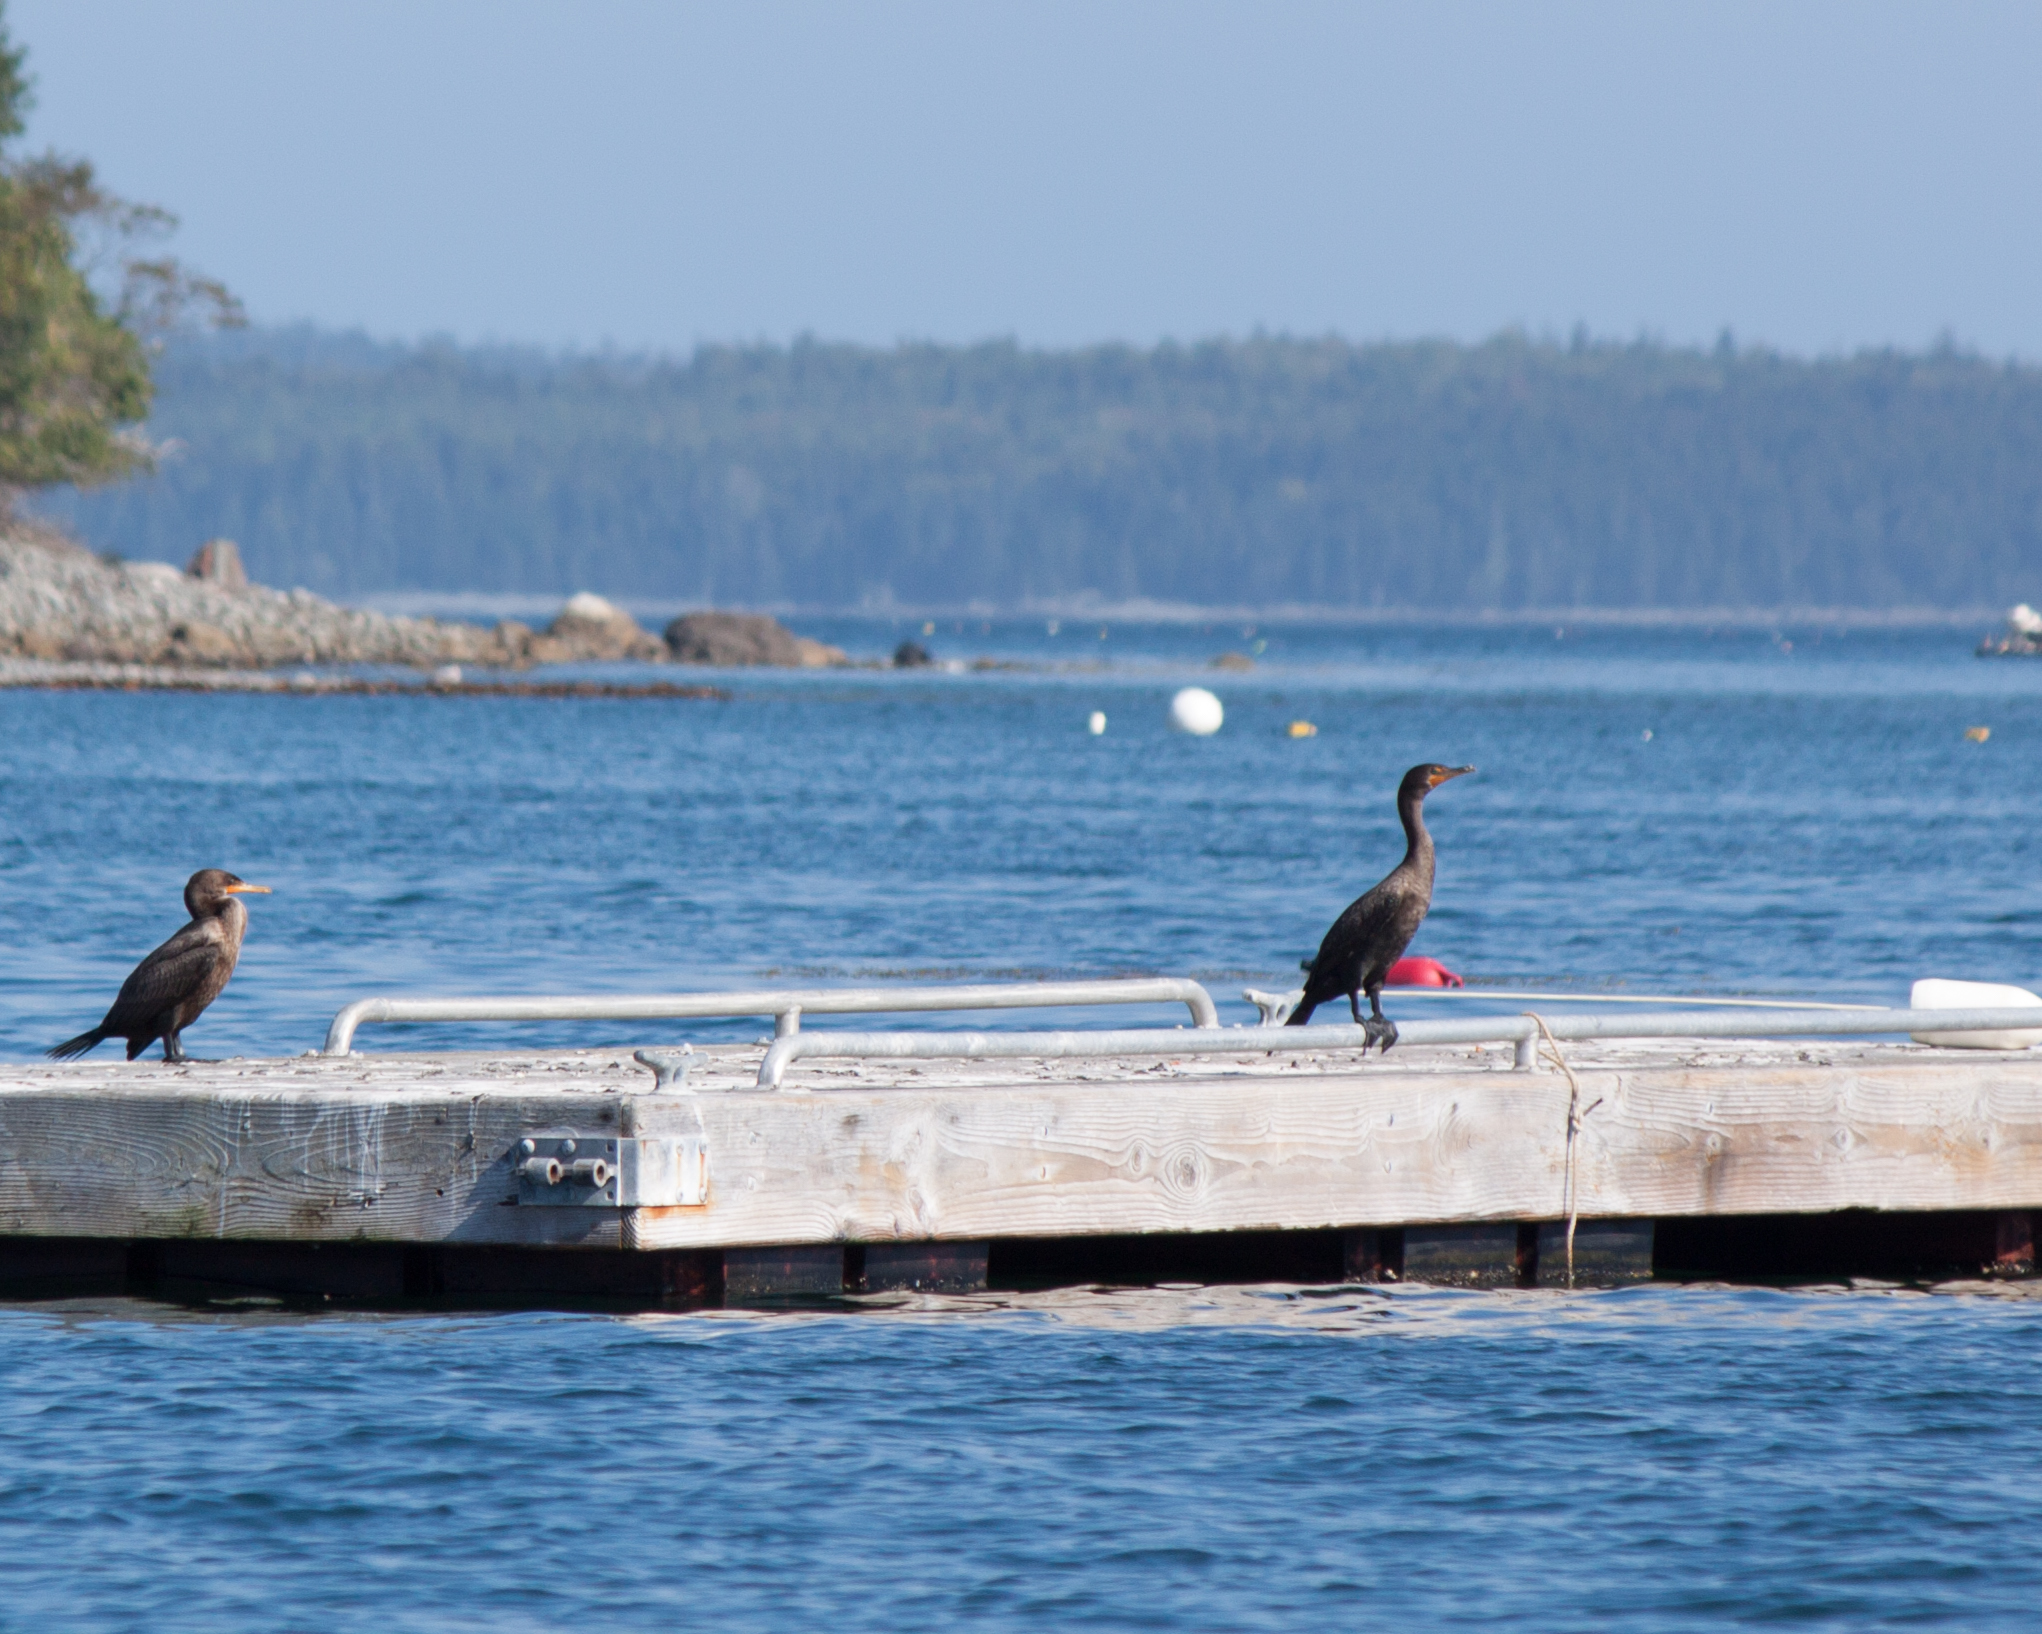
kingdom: Animalia
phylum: Chordata
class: Aves
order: Suliformes
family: Phalacrocoracidae
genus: Phalacrocorax
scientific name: Phalacrocorax auritus
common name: Double-crested cormorant
